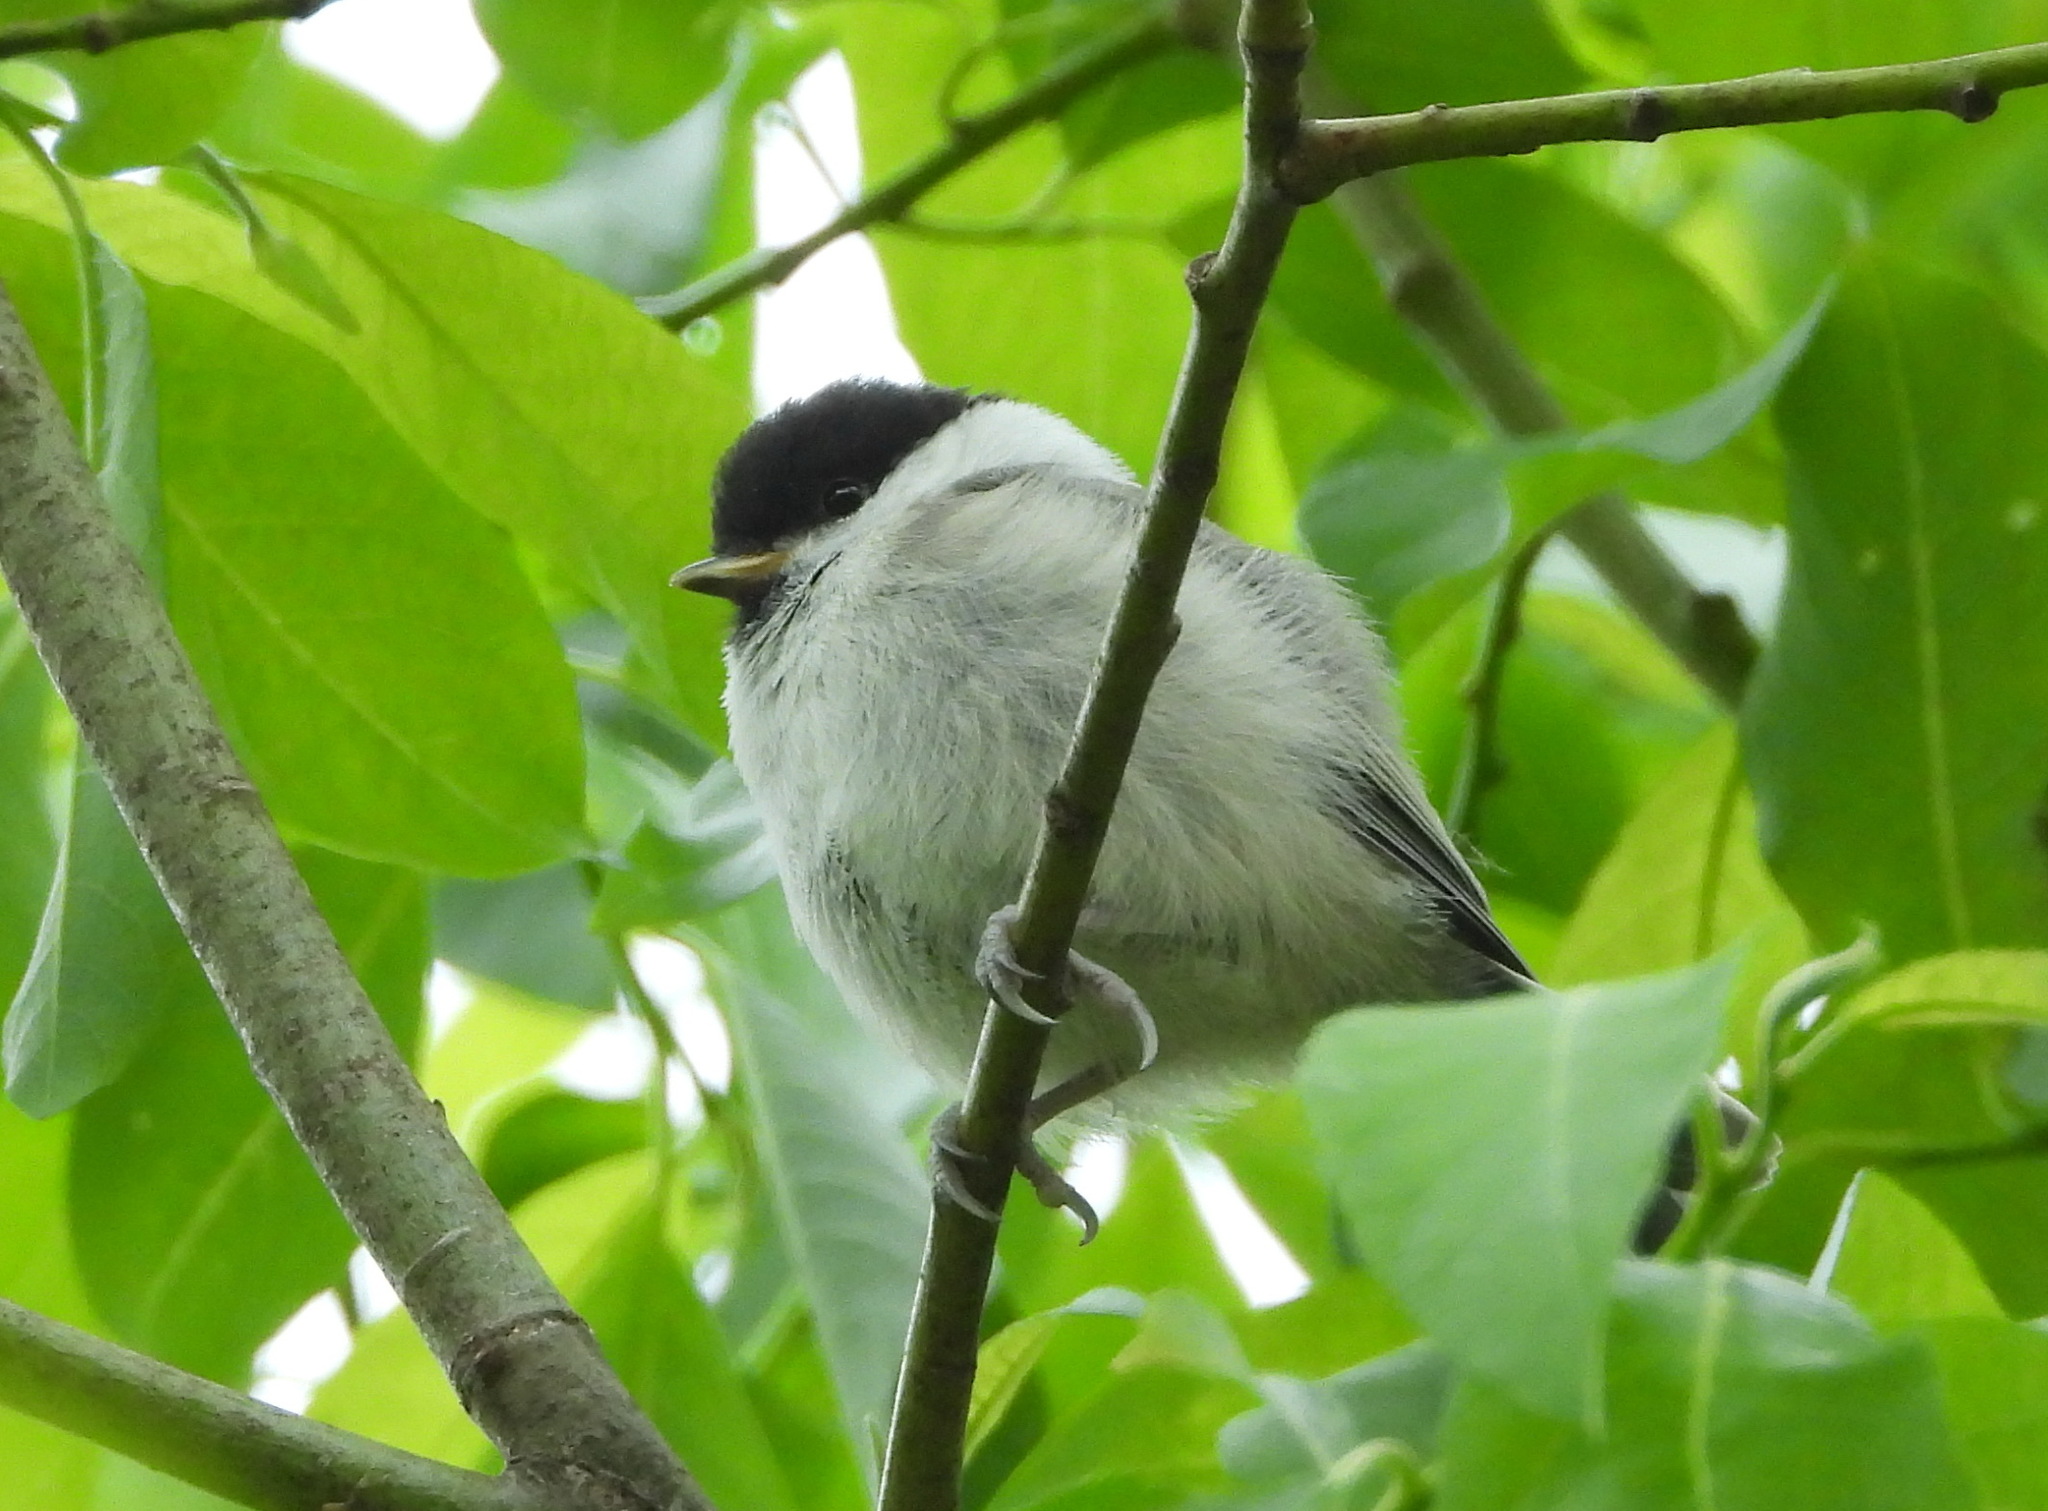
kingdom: Animalia
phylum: Chordata
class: Aves
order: Passeriformes
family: Paridae
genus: Poecile
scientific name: Poecile montanus
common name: Willow tit
